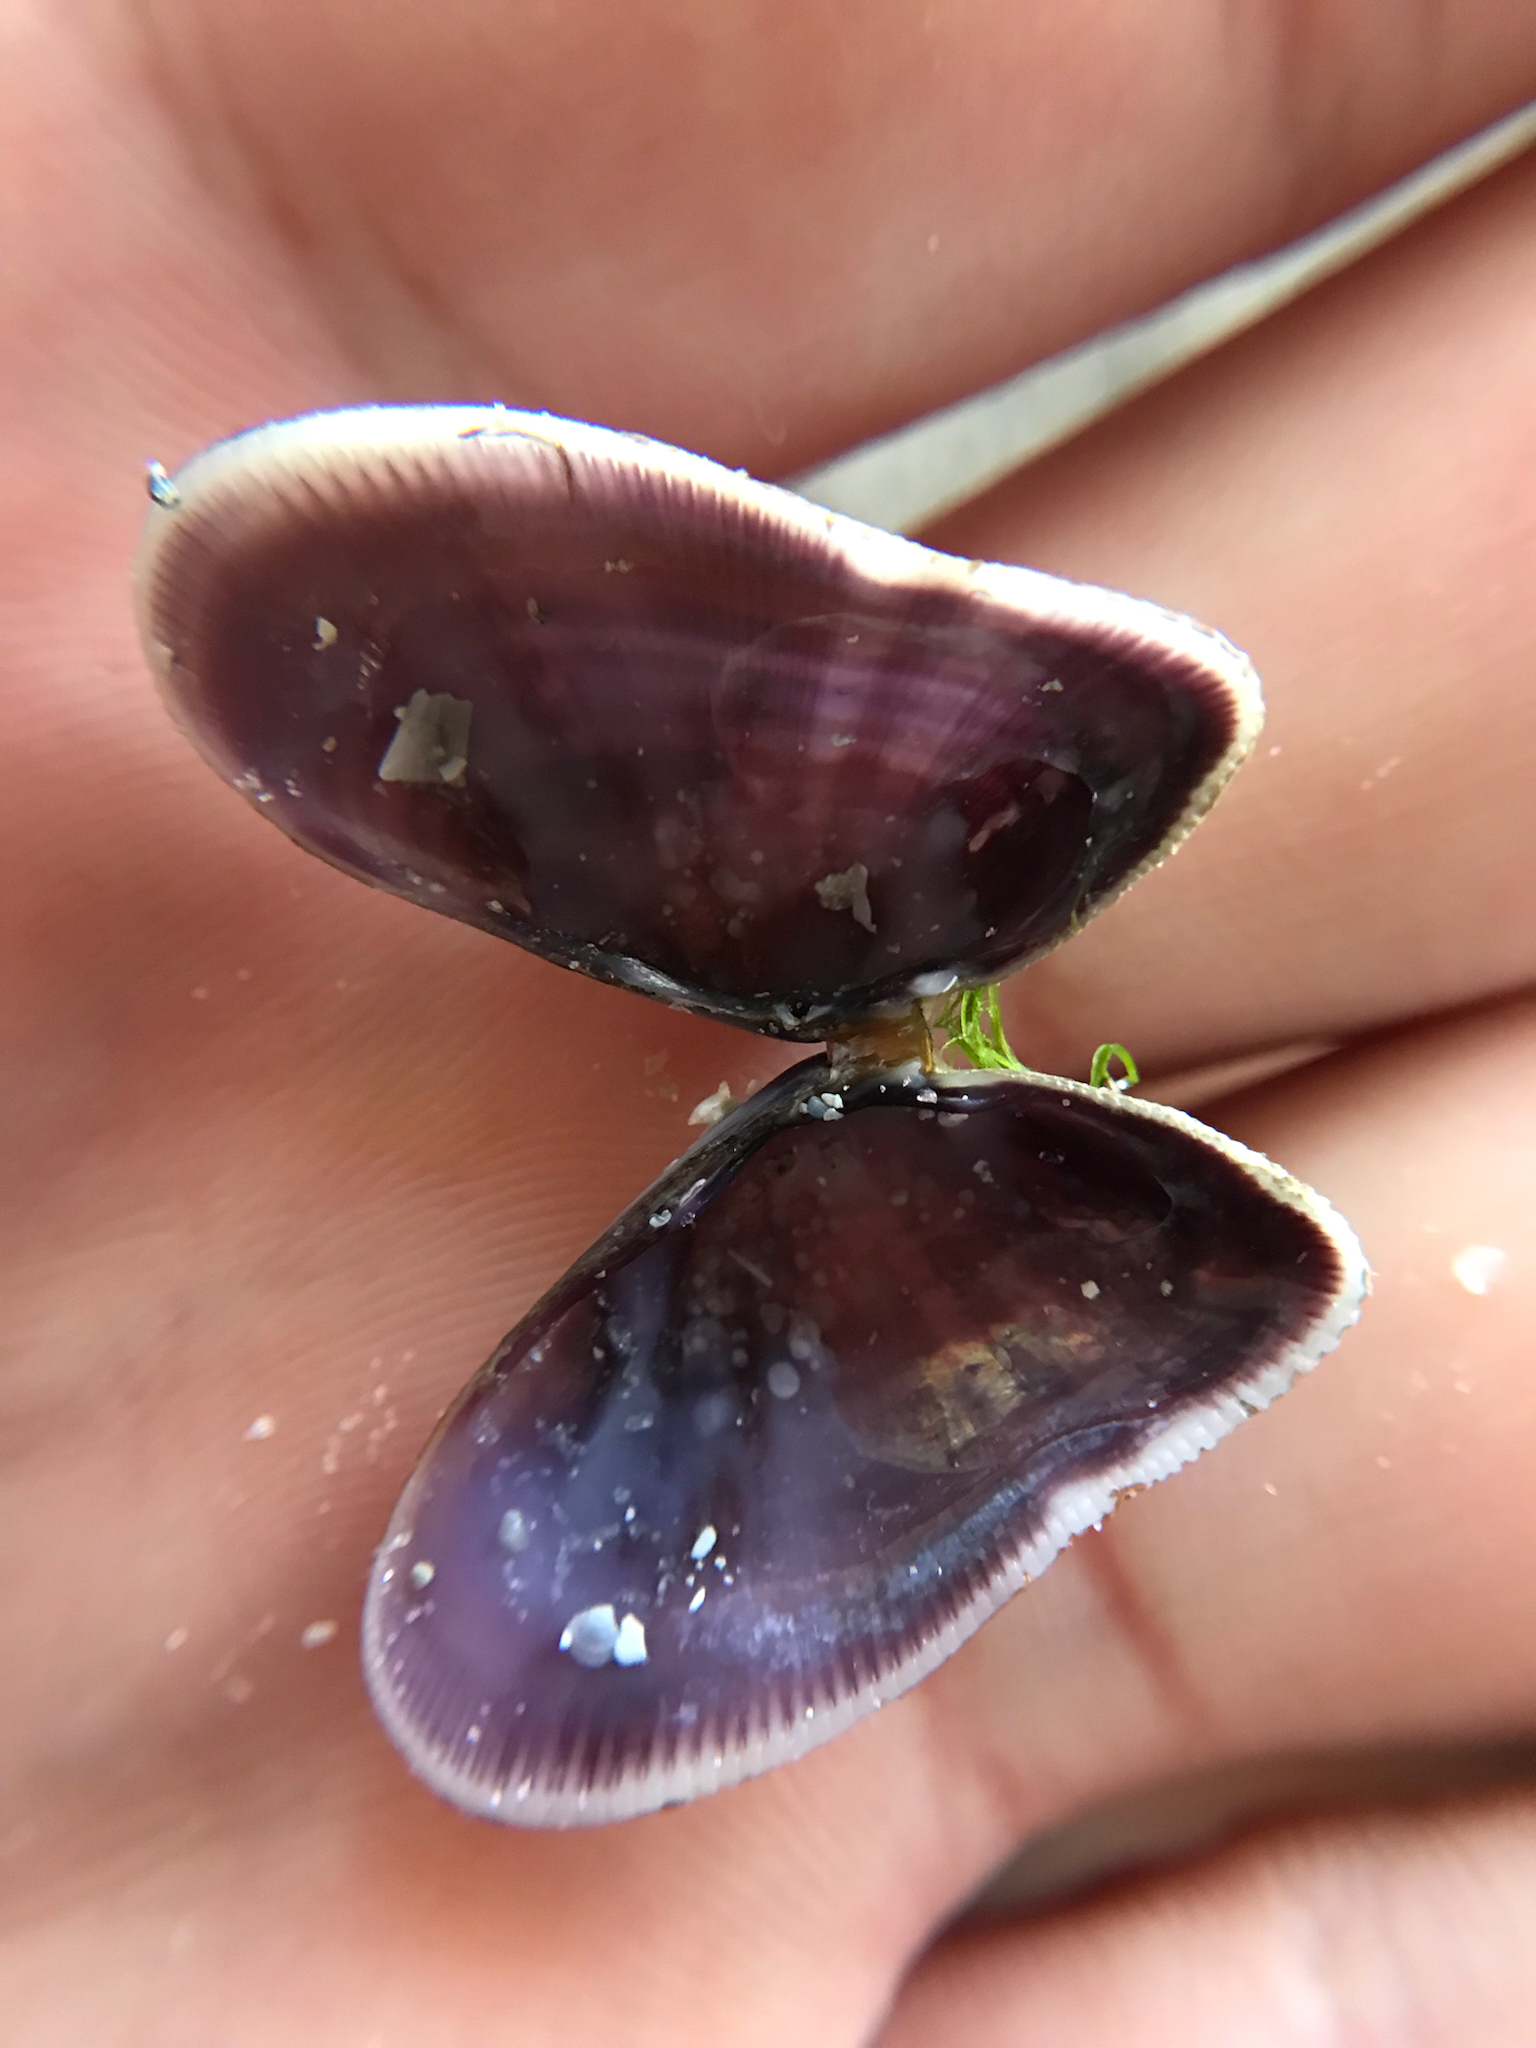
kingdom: Animalia
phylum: Mollusca
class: Bivalvia
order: Cardiida
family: Donacidae
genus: Donax
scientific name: Donax variabilis
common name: Butterfly shell
